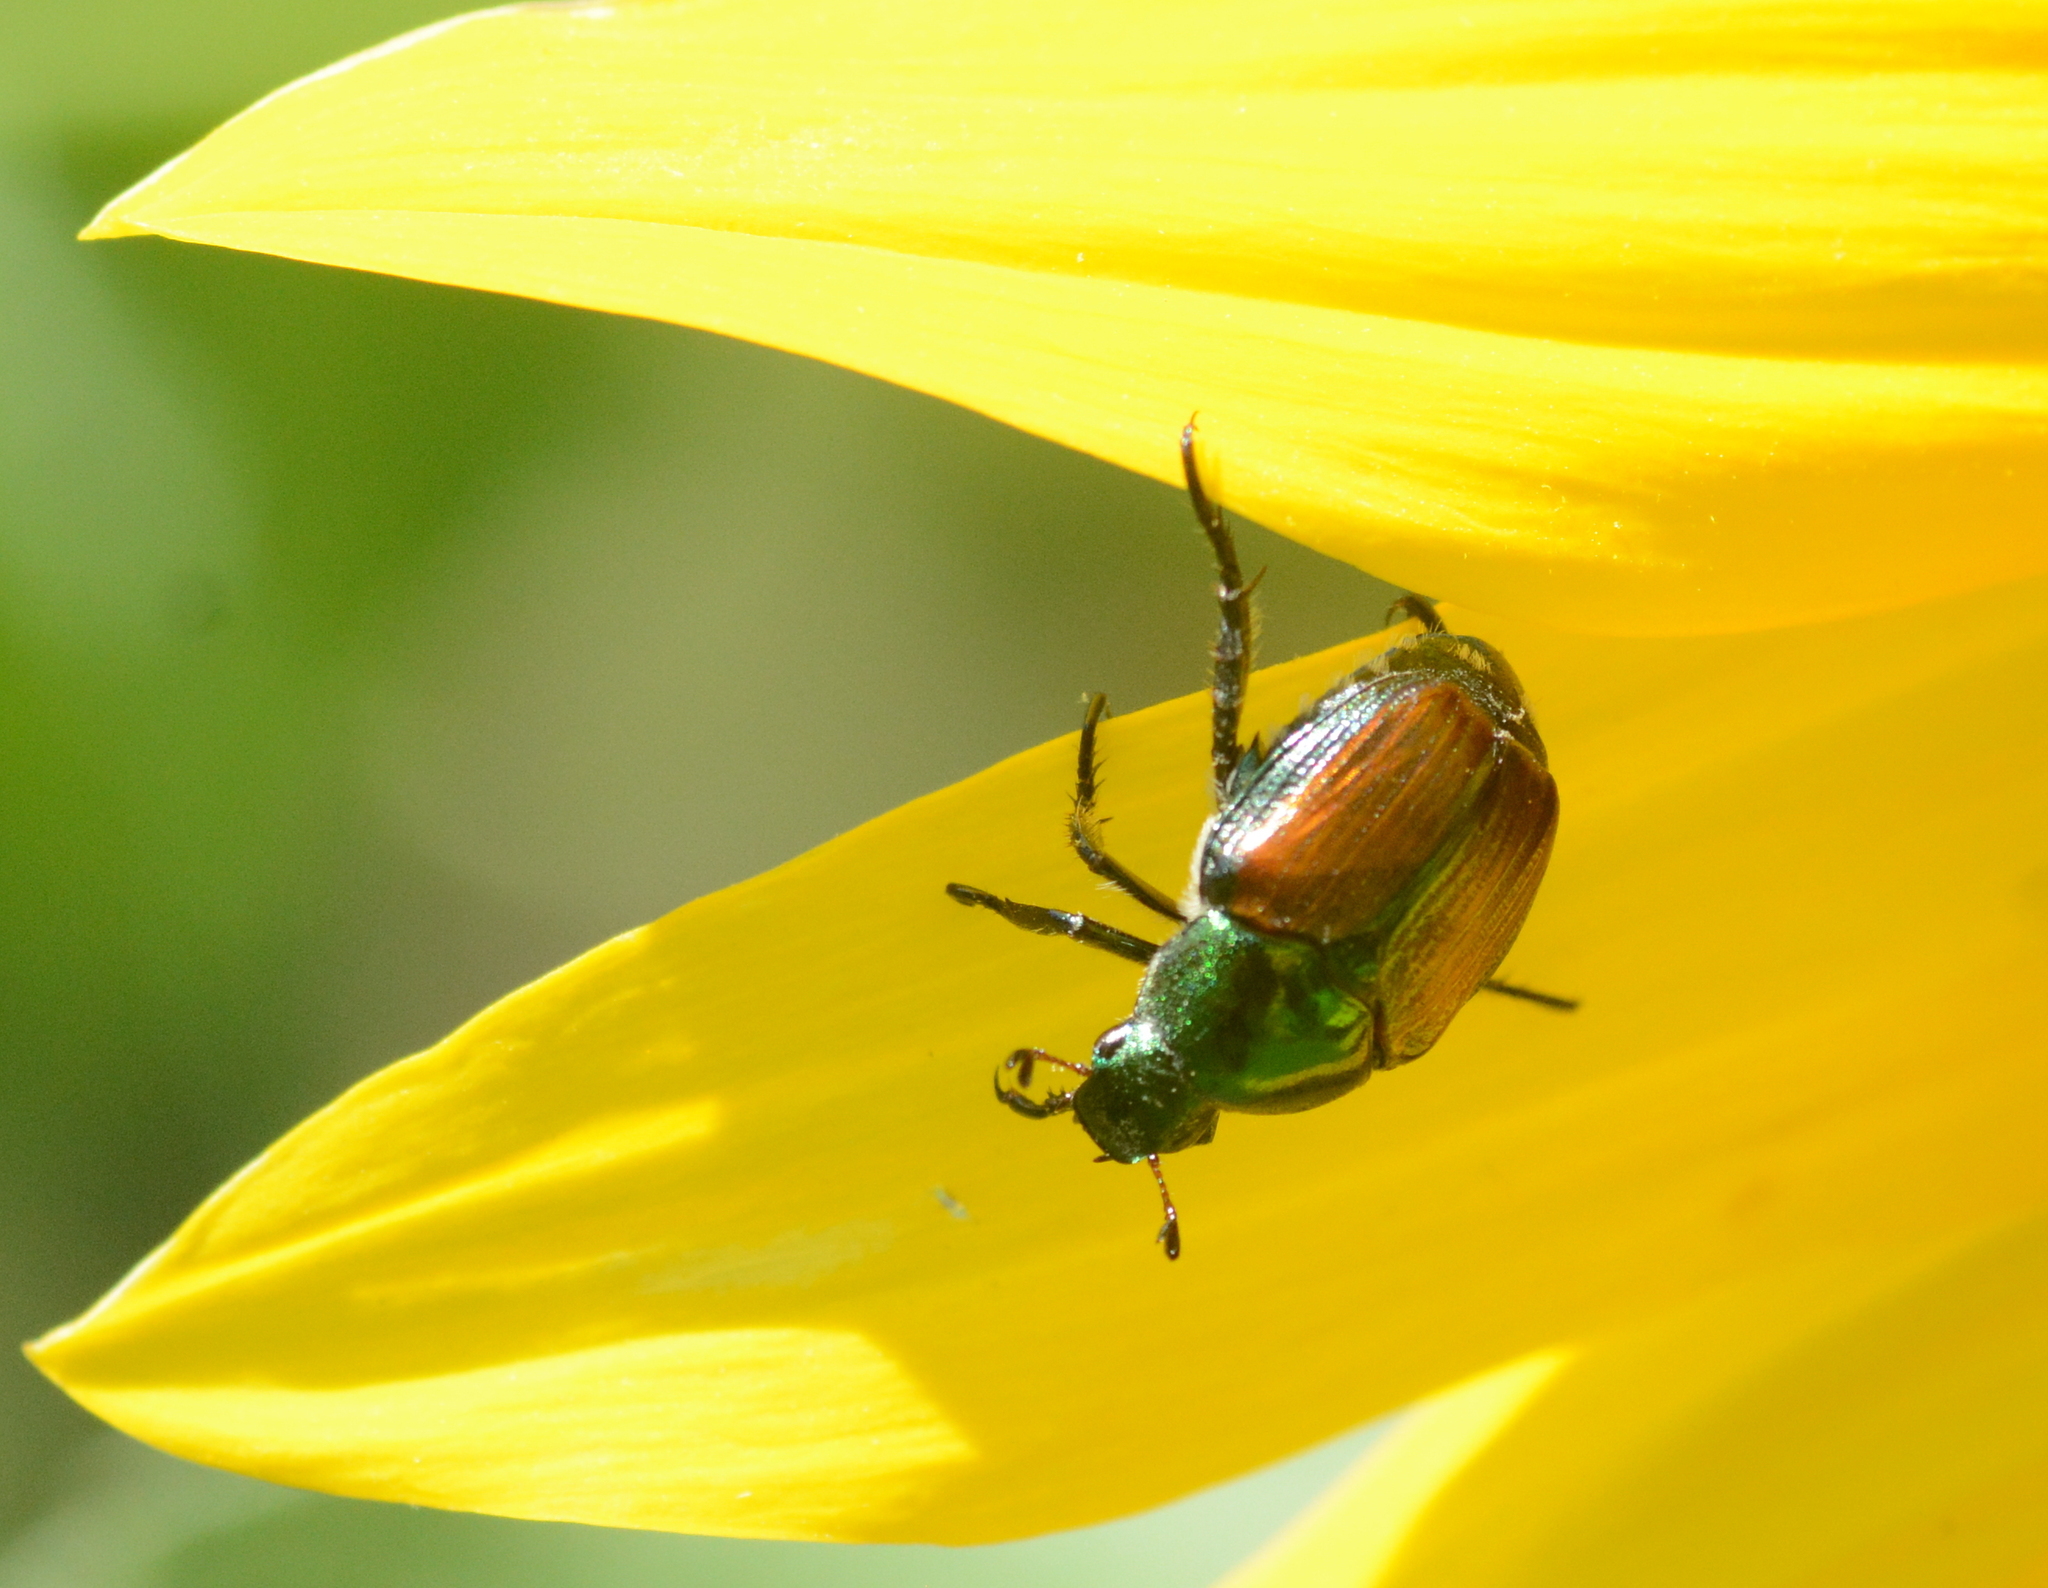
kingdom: Animalia
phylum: Arthropoda
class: Insecta
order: Coleoptera
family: Scarabaeidae
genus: Popillia
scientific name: Popillia japonica
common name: Japanese beetle
